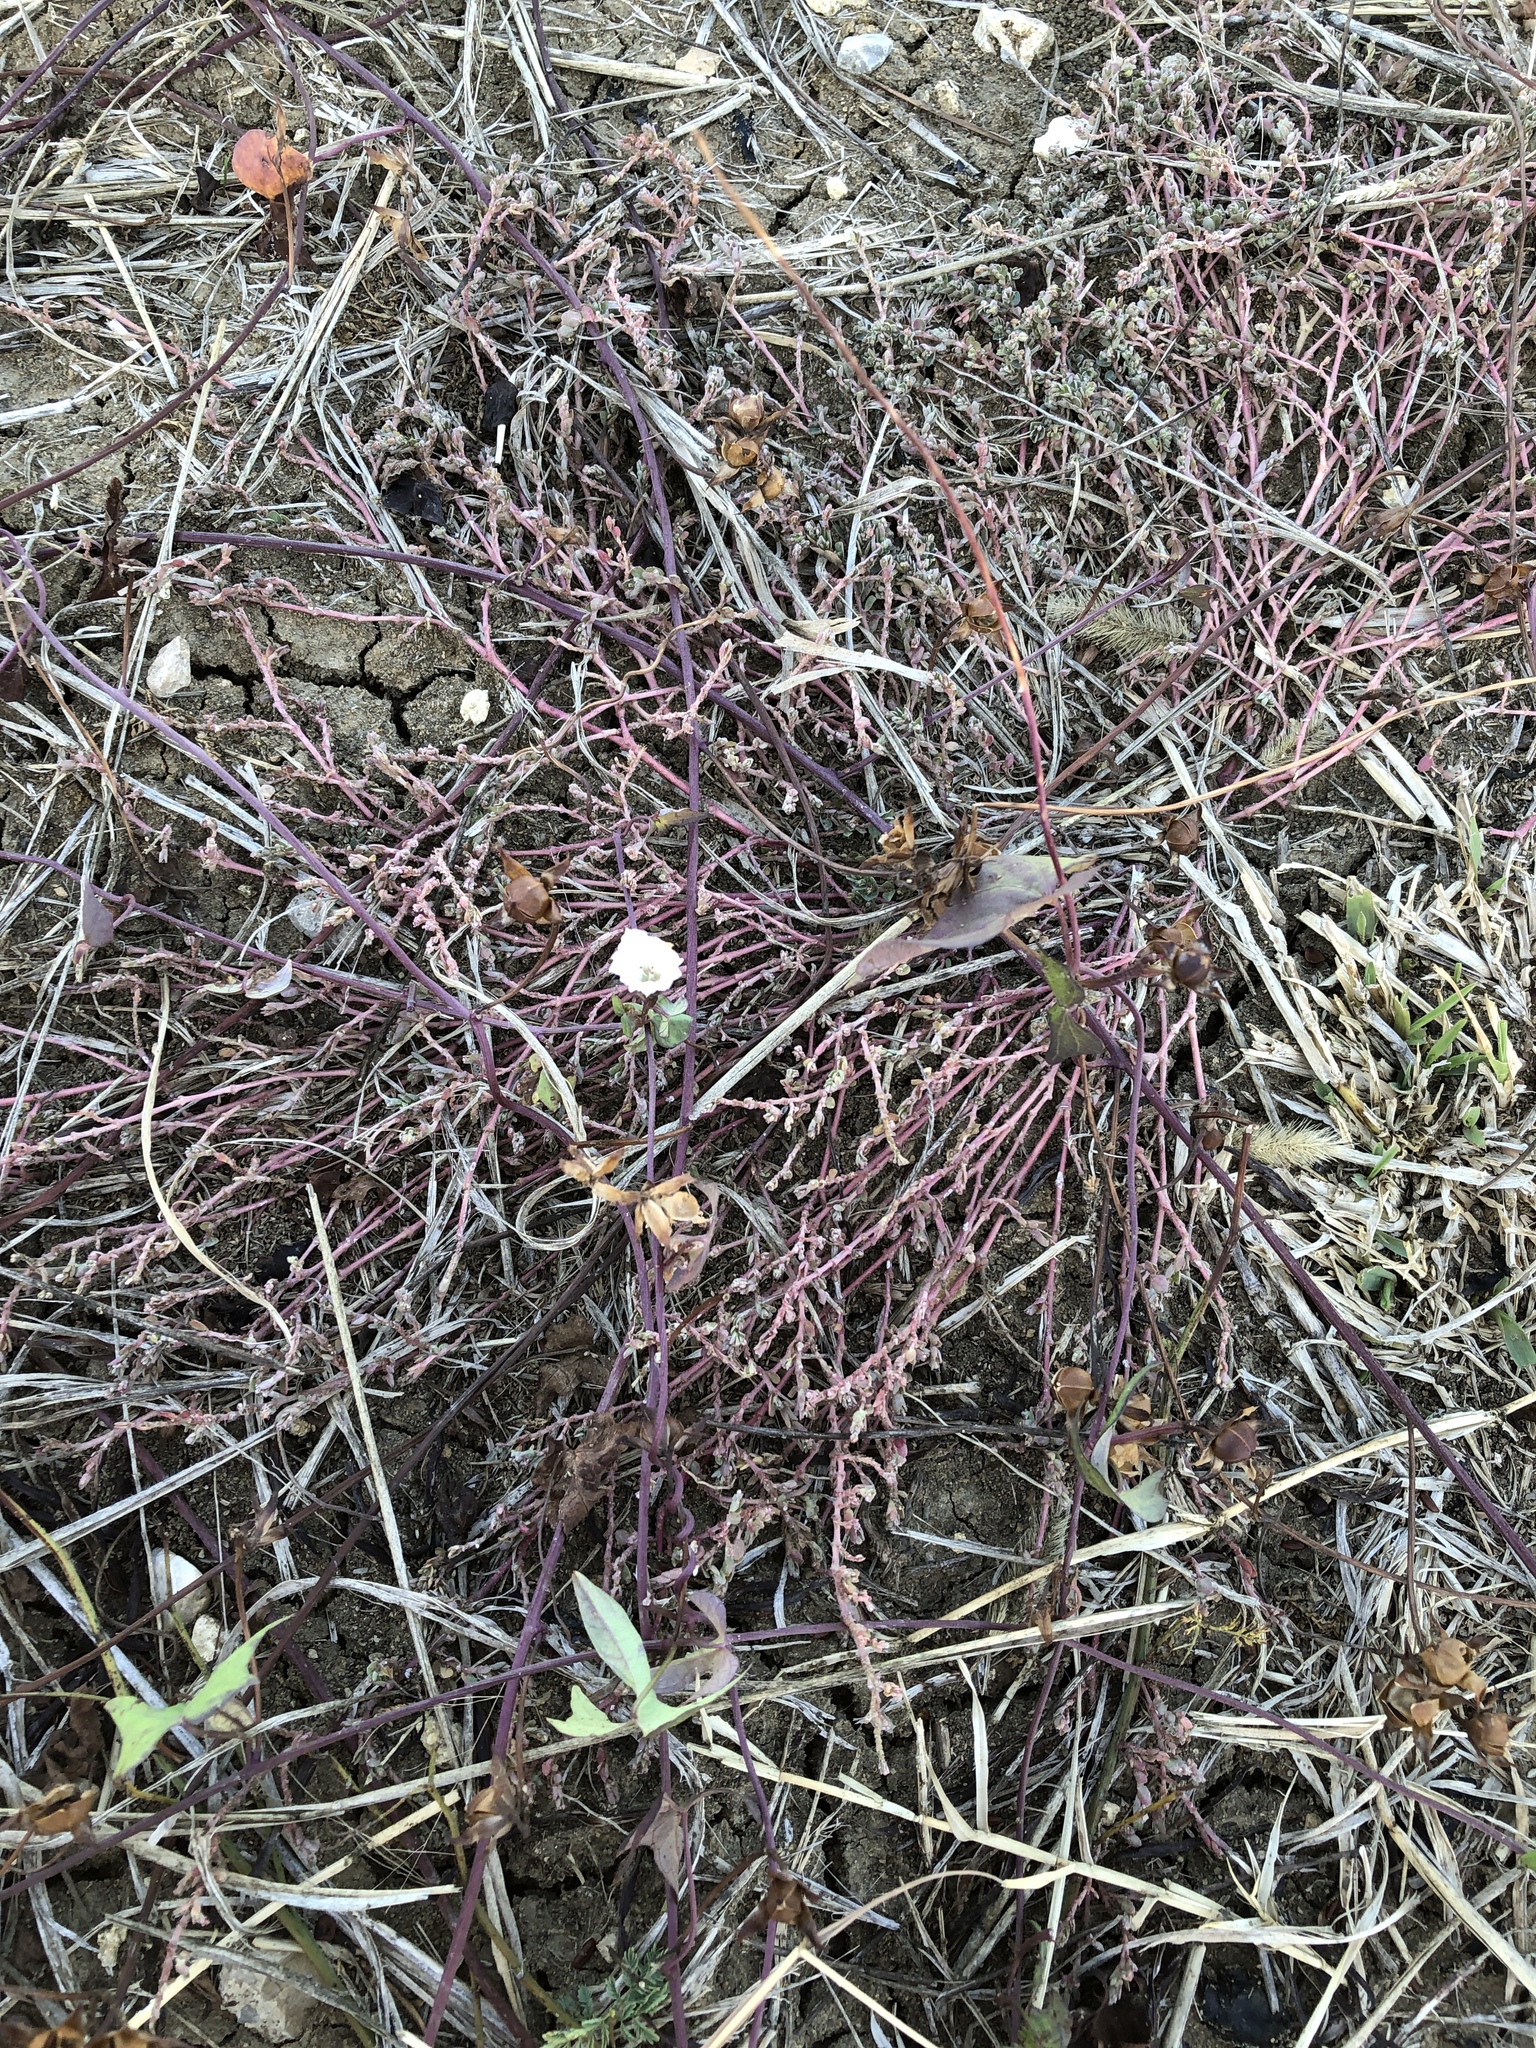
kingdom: Plantae
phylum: Tracheophyta
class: Magnoliopsida
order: Solanales
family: Convolvulaceae
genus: Ipomoea
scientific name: Ipomoea lacunosa
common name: White morning-glory
